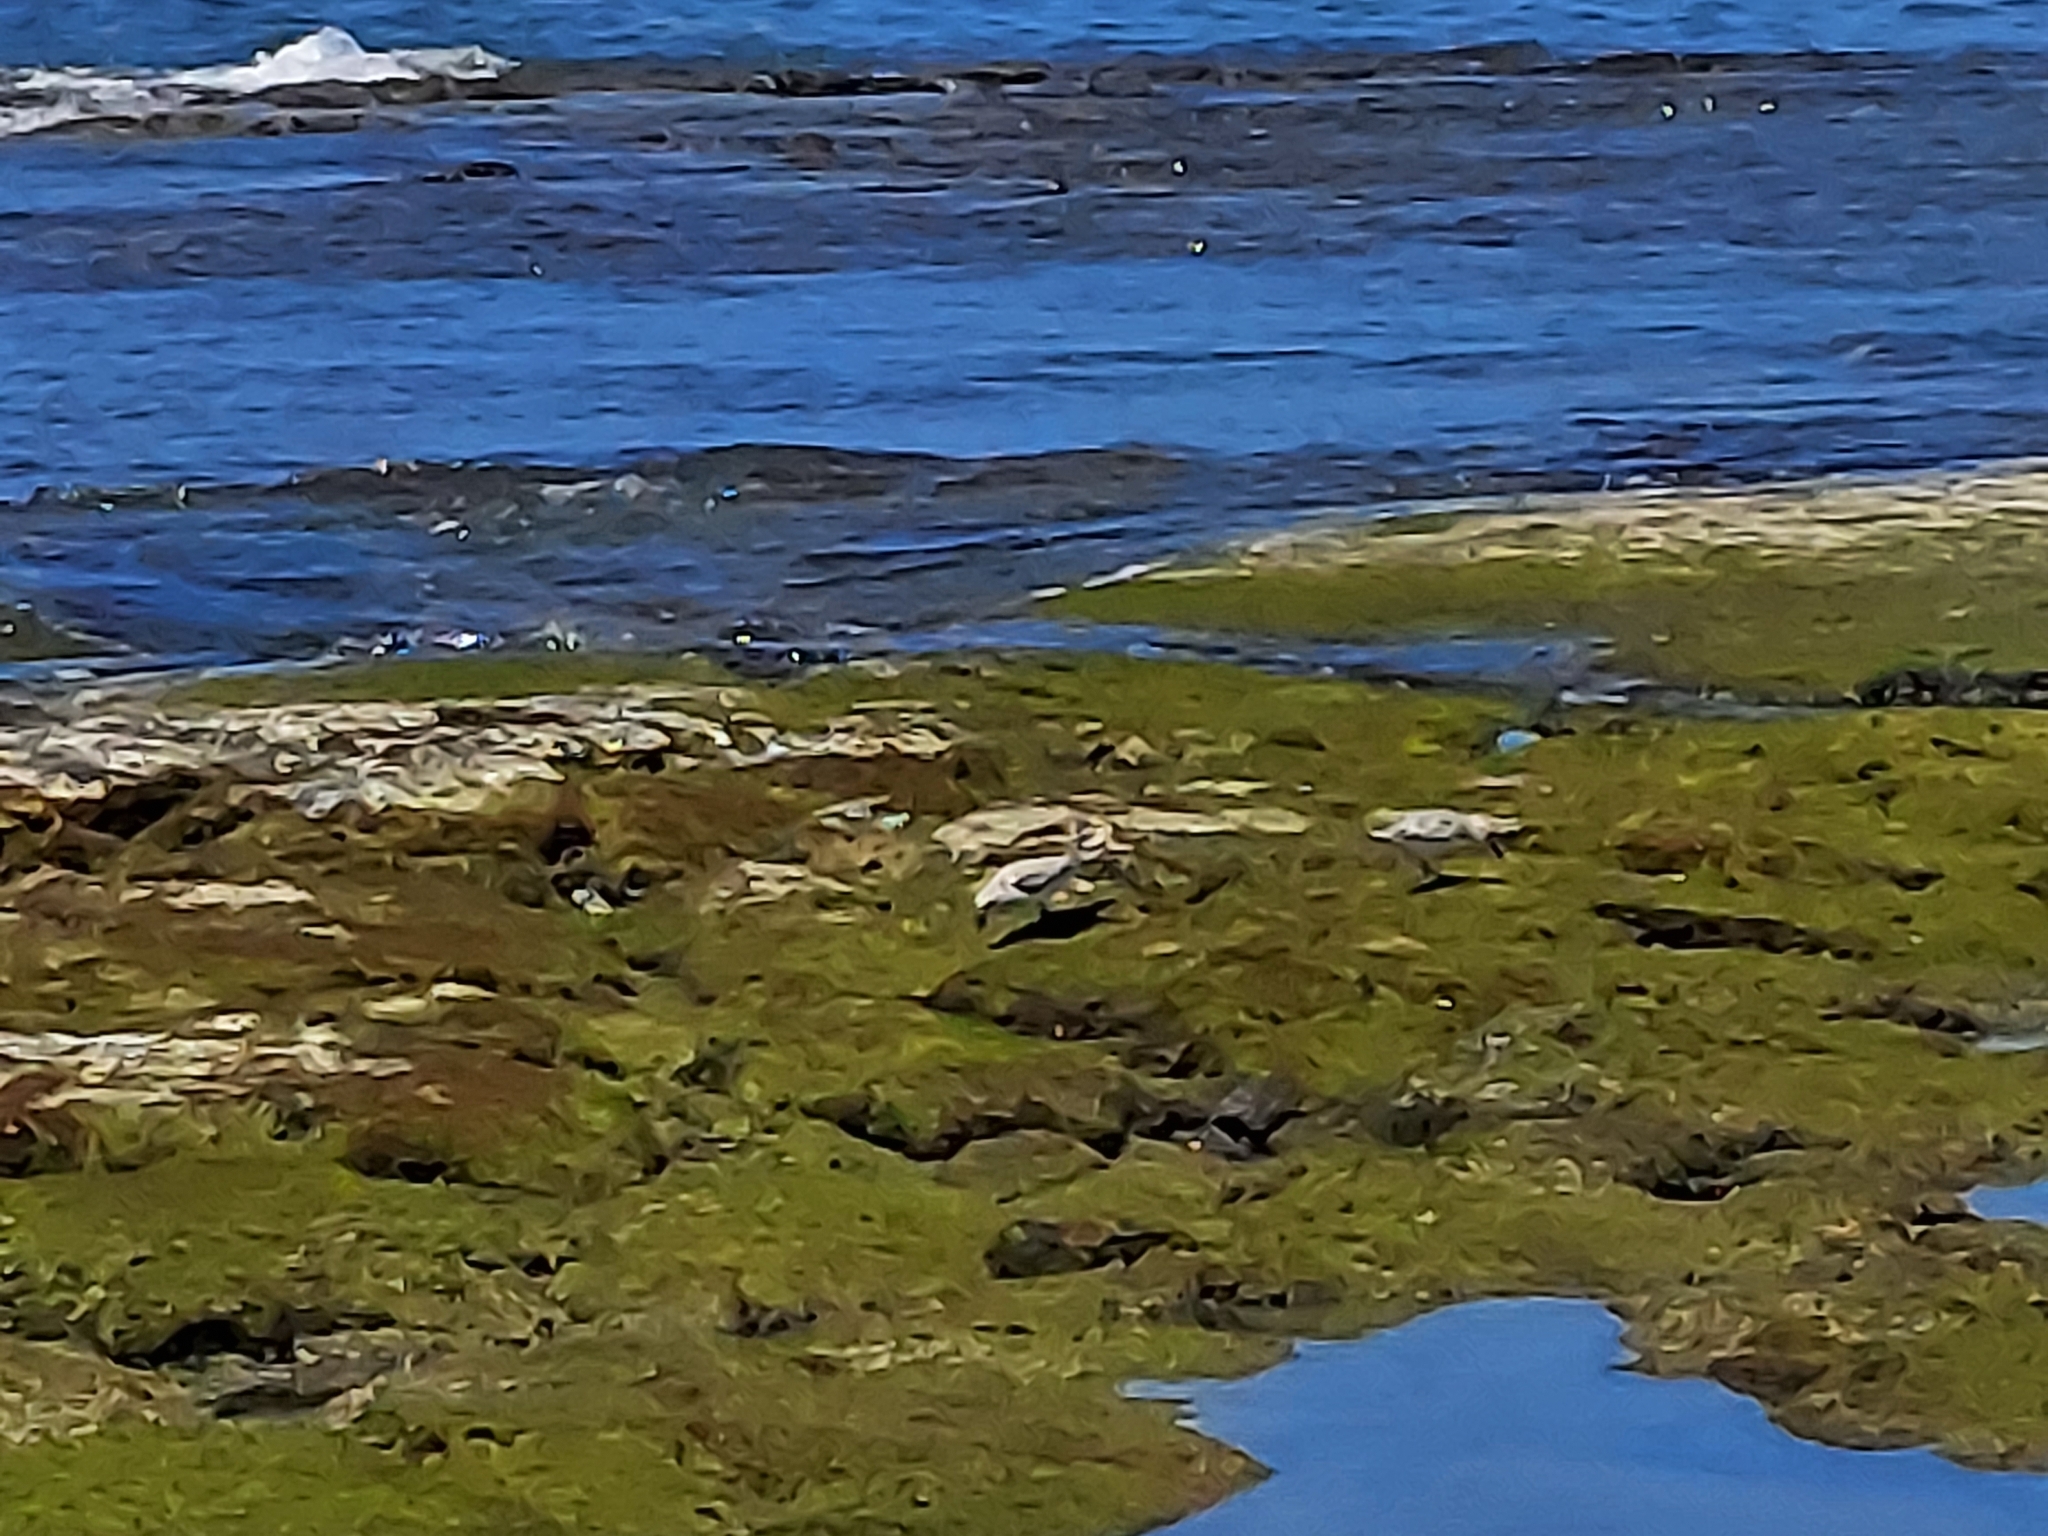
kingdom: Animalia
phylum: Chordata
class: Aves
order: Charadriiformes
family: Scolopacidae
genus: Calidris
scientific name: Calidris alba
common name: Sanderling
